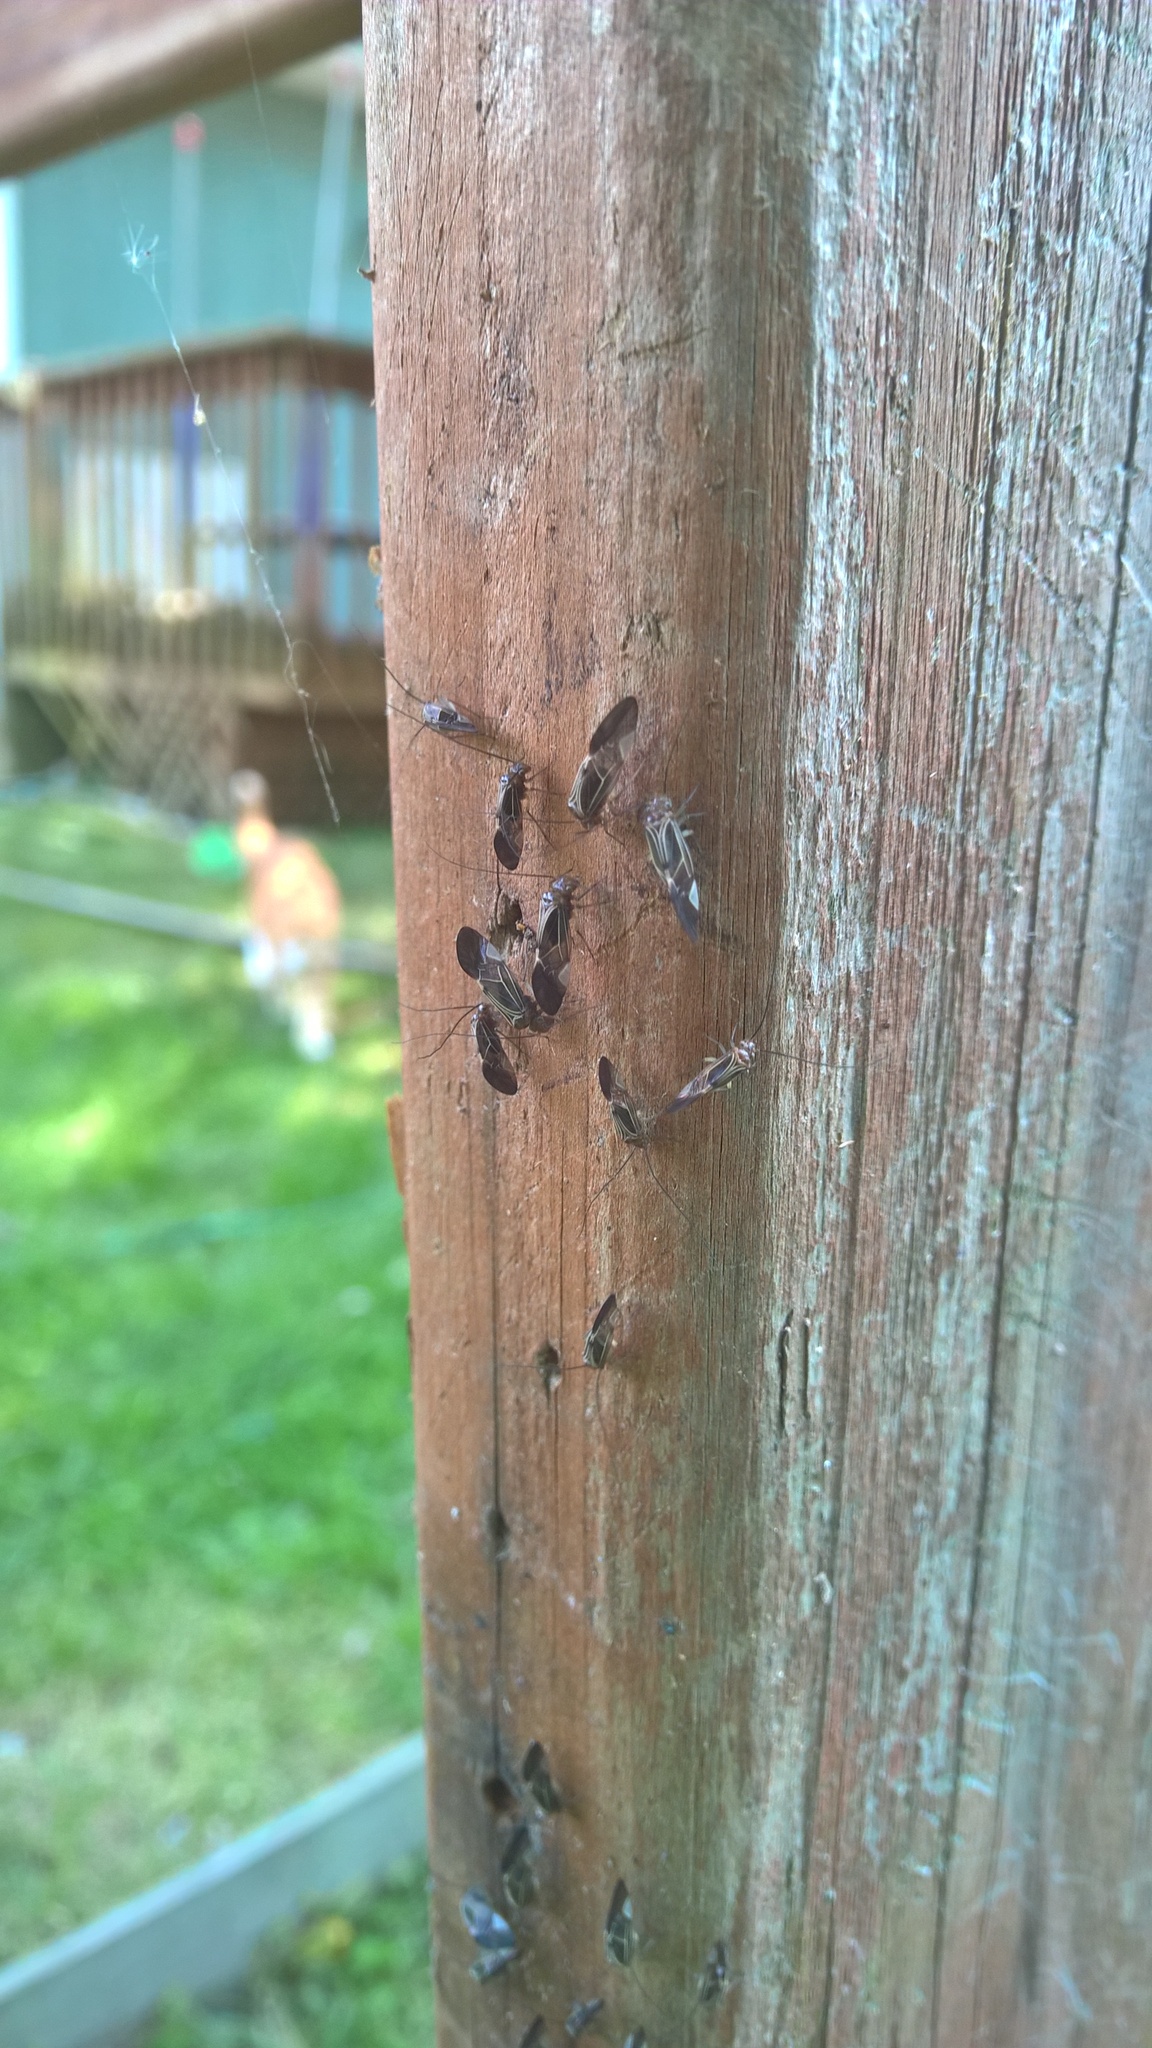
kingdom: Animalia
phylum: Arthropoda
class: Insecta
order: Psocodea
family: Psocidae
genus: Cerastipsocus
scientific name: Cerastipsocus venosus
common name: Tree cattle
